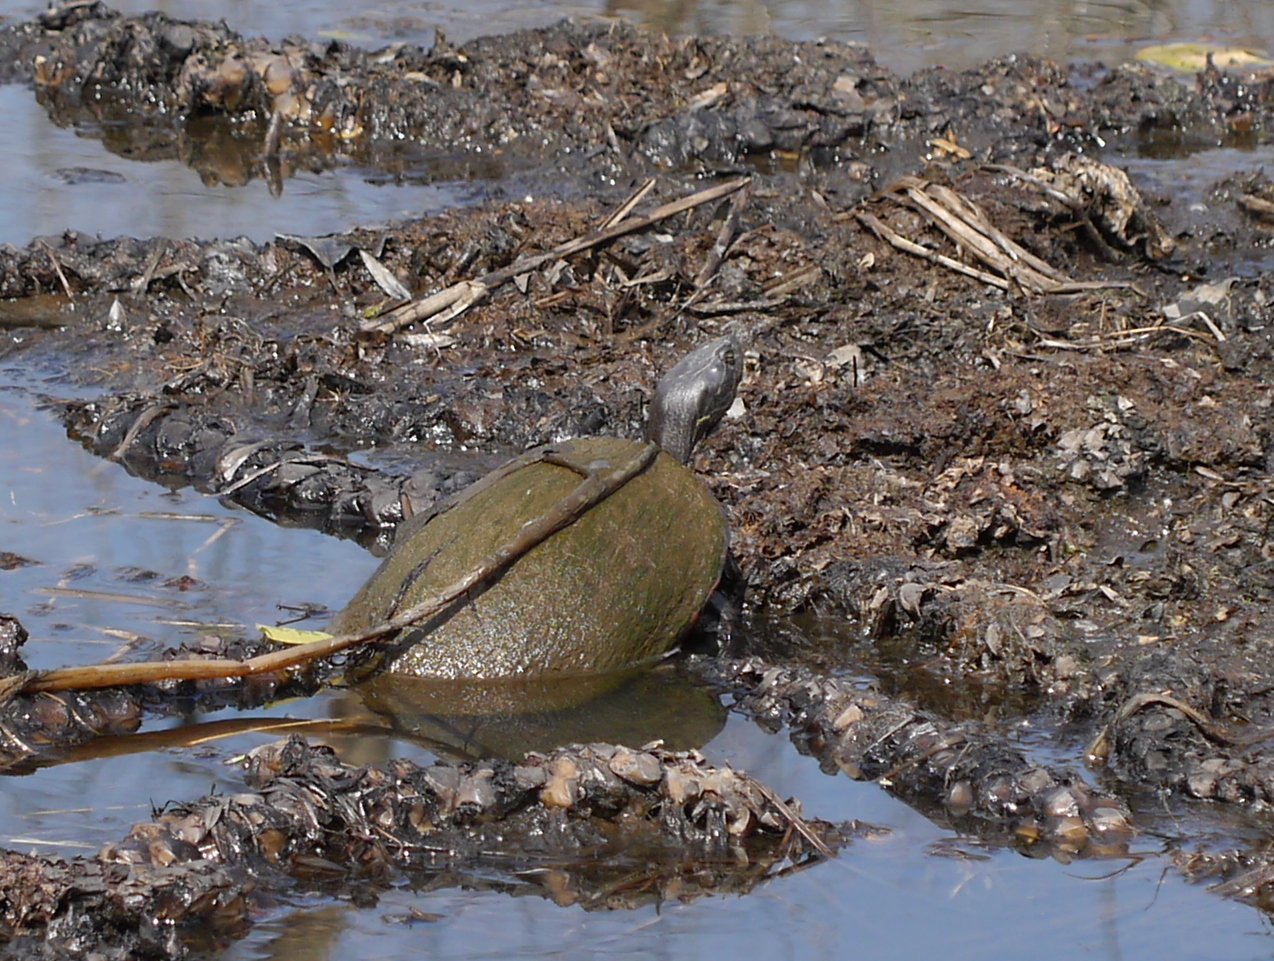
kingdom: Animalia
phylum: Chordata
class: Testudines
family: Emydidae
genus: Pseudemys
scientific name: Pseudemys rubriventris
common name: American red-bellied turtle
